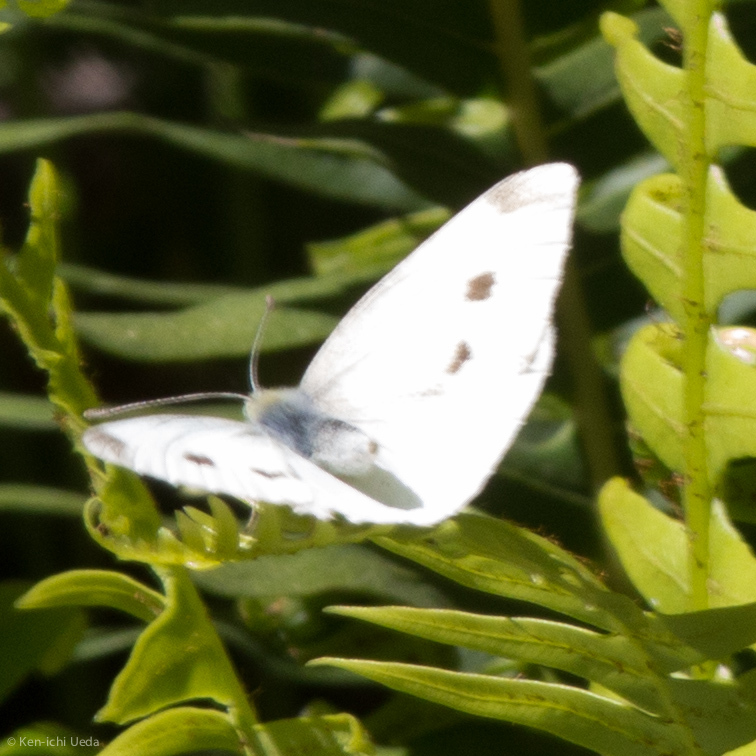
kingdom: Animalia
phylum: Arthropoda
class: Insecta
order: Lepidoptera
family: Pieridae
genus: Pieris
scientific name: Pieris rapae
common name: Small white
